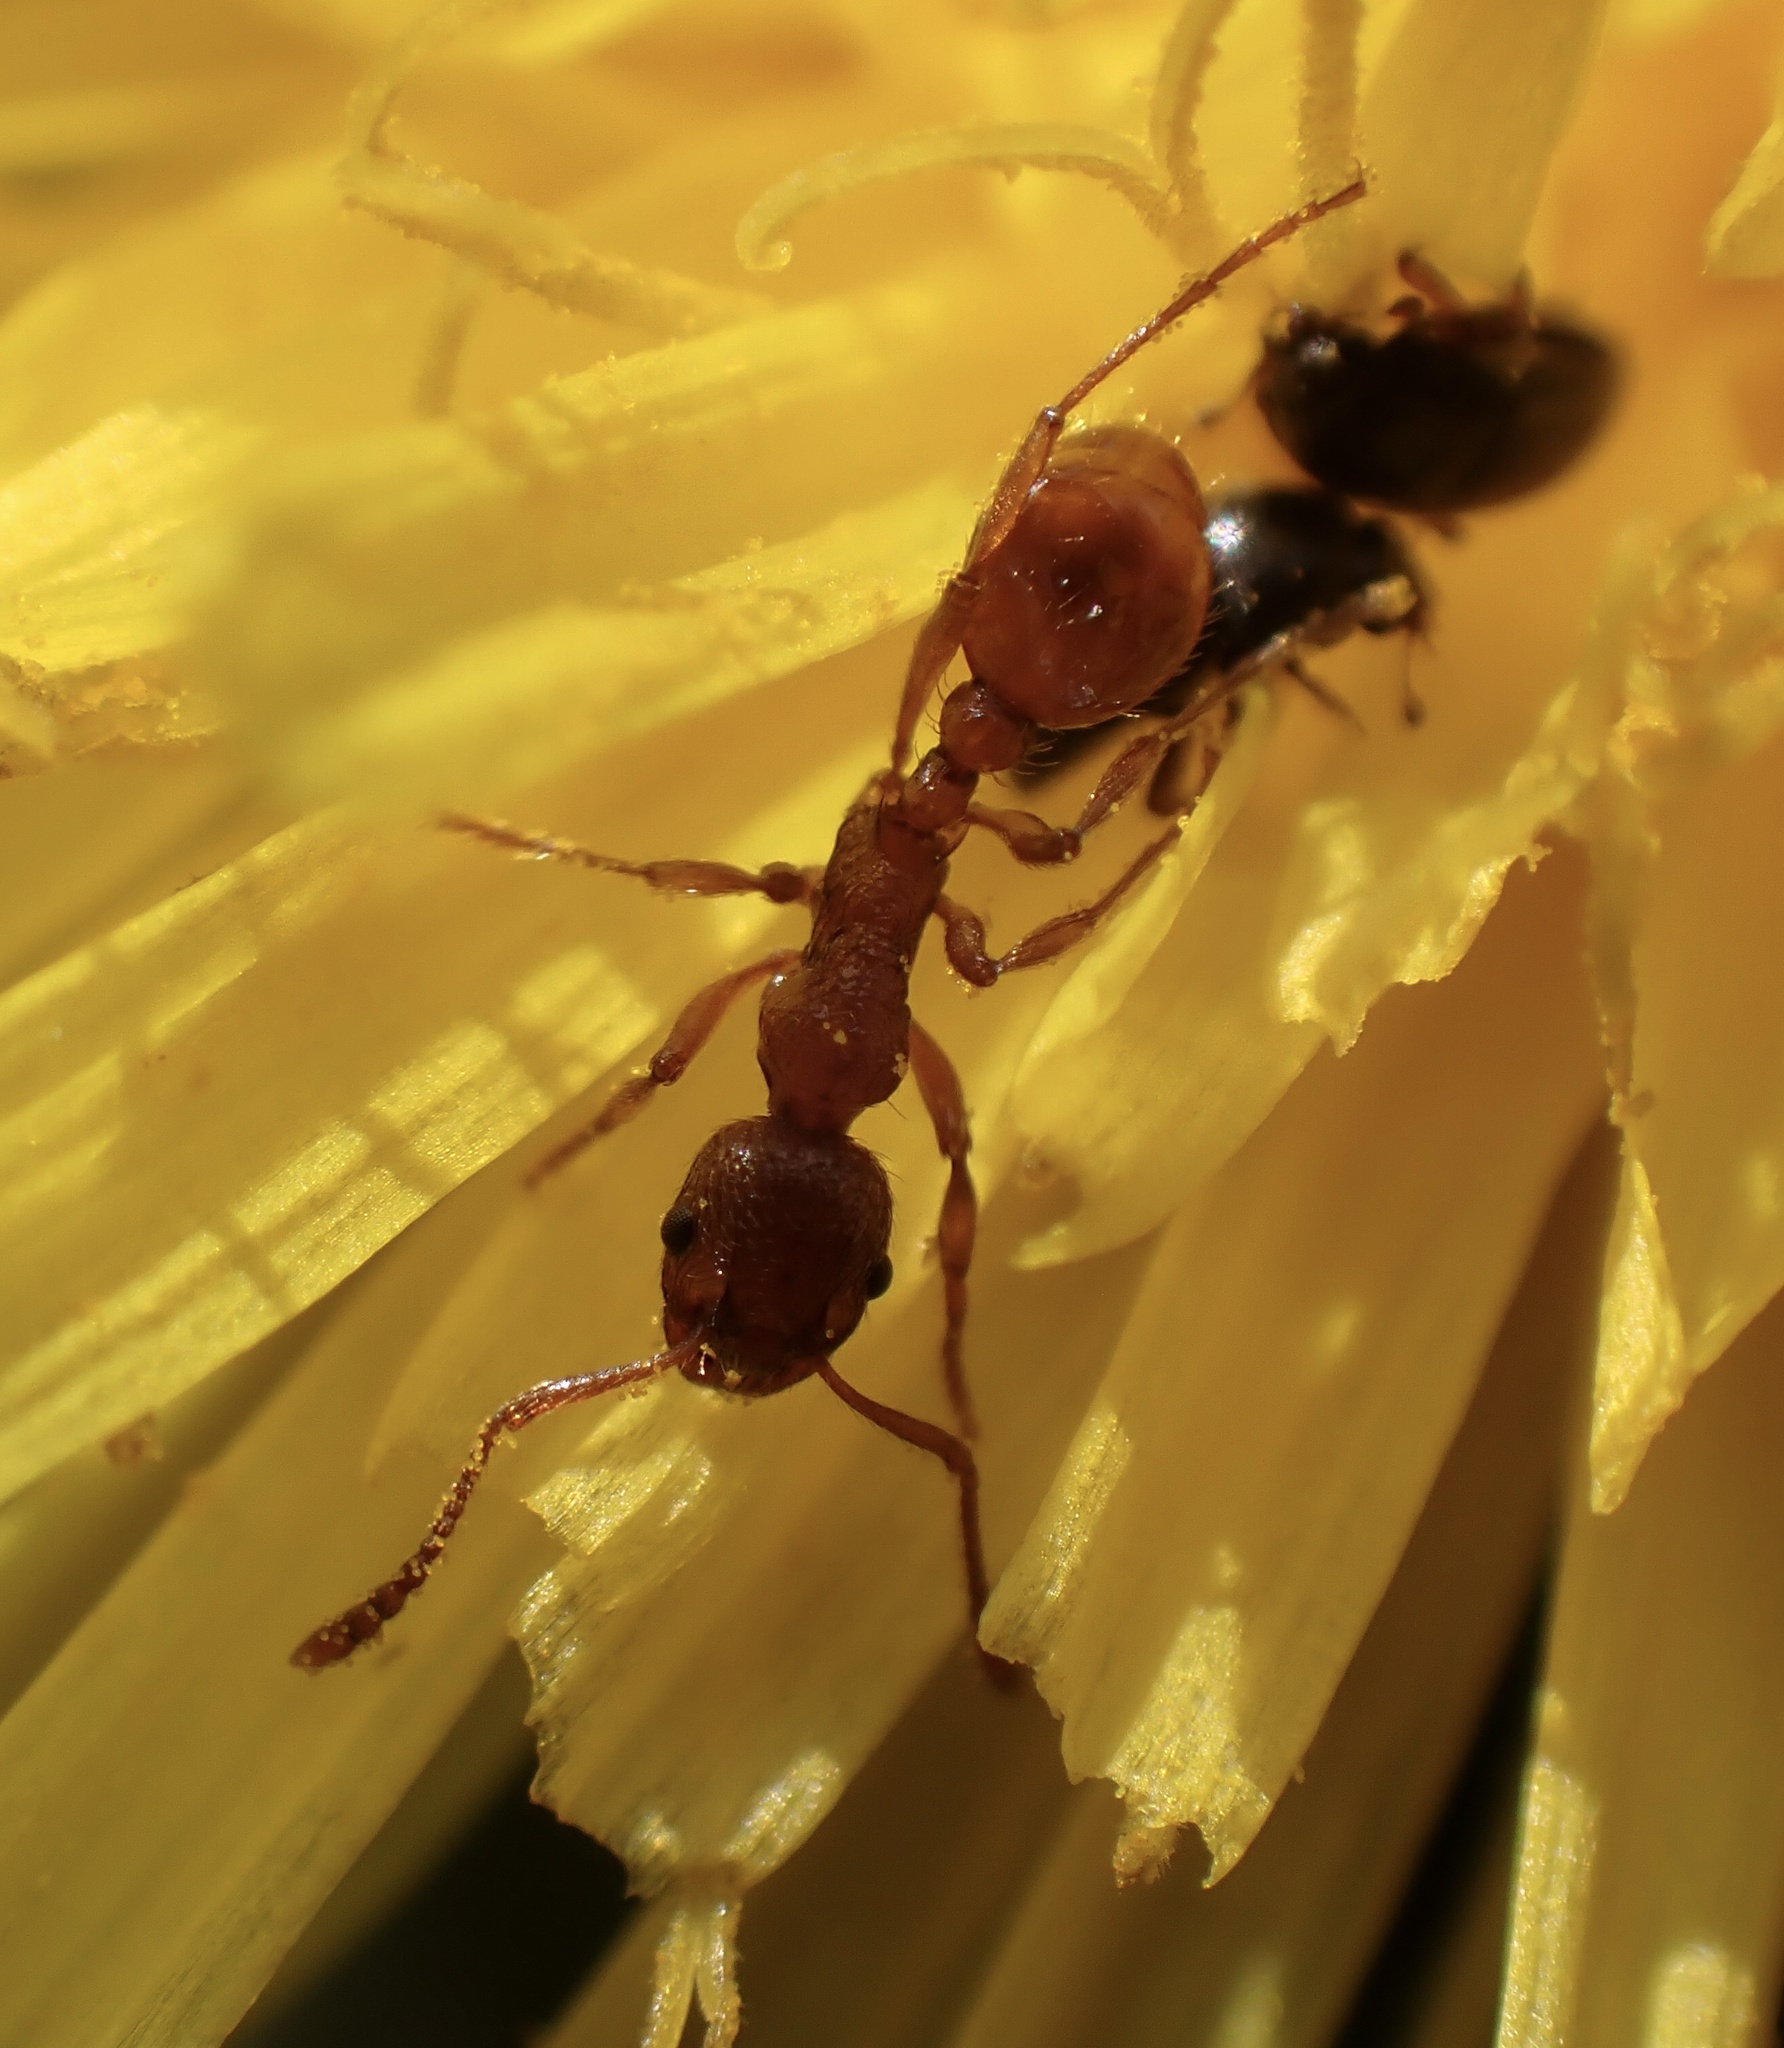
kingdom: Animalia
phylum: Arthropoda
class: Insecta
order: Hymenoptera
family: Formicidae
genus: Myrmica
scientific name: Myrmica rubra
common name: European fire ant
